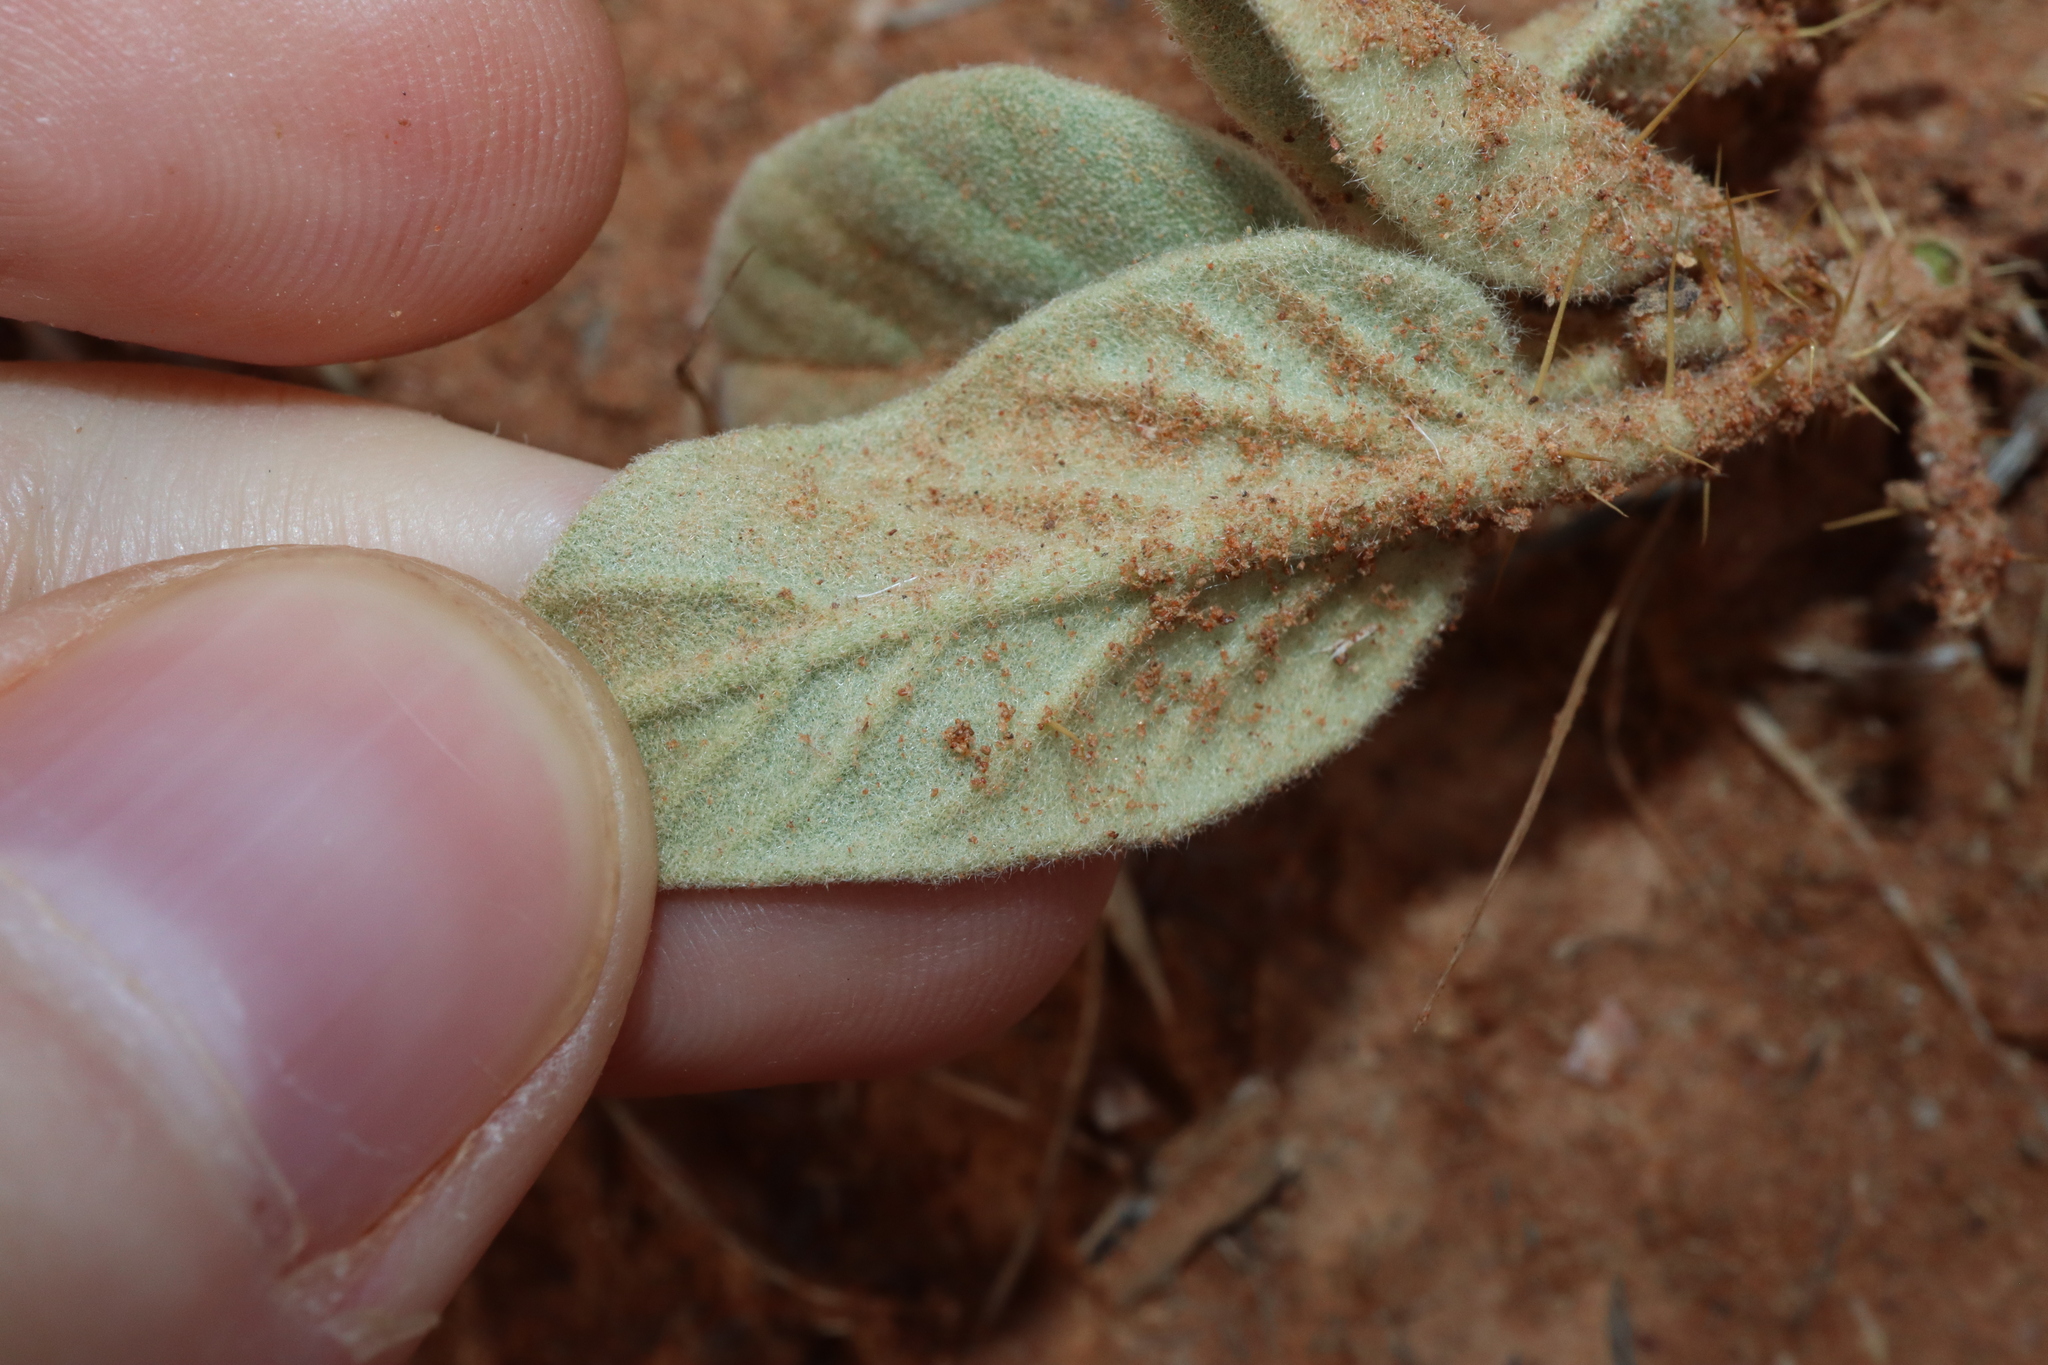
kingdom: Plantae
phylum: Tracheophyta
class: Magnoliopsida
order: Solanales
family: Solanaceae
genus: Solanum
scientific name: Solanum ellipticum
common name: Potato-bush
